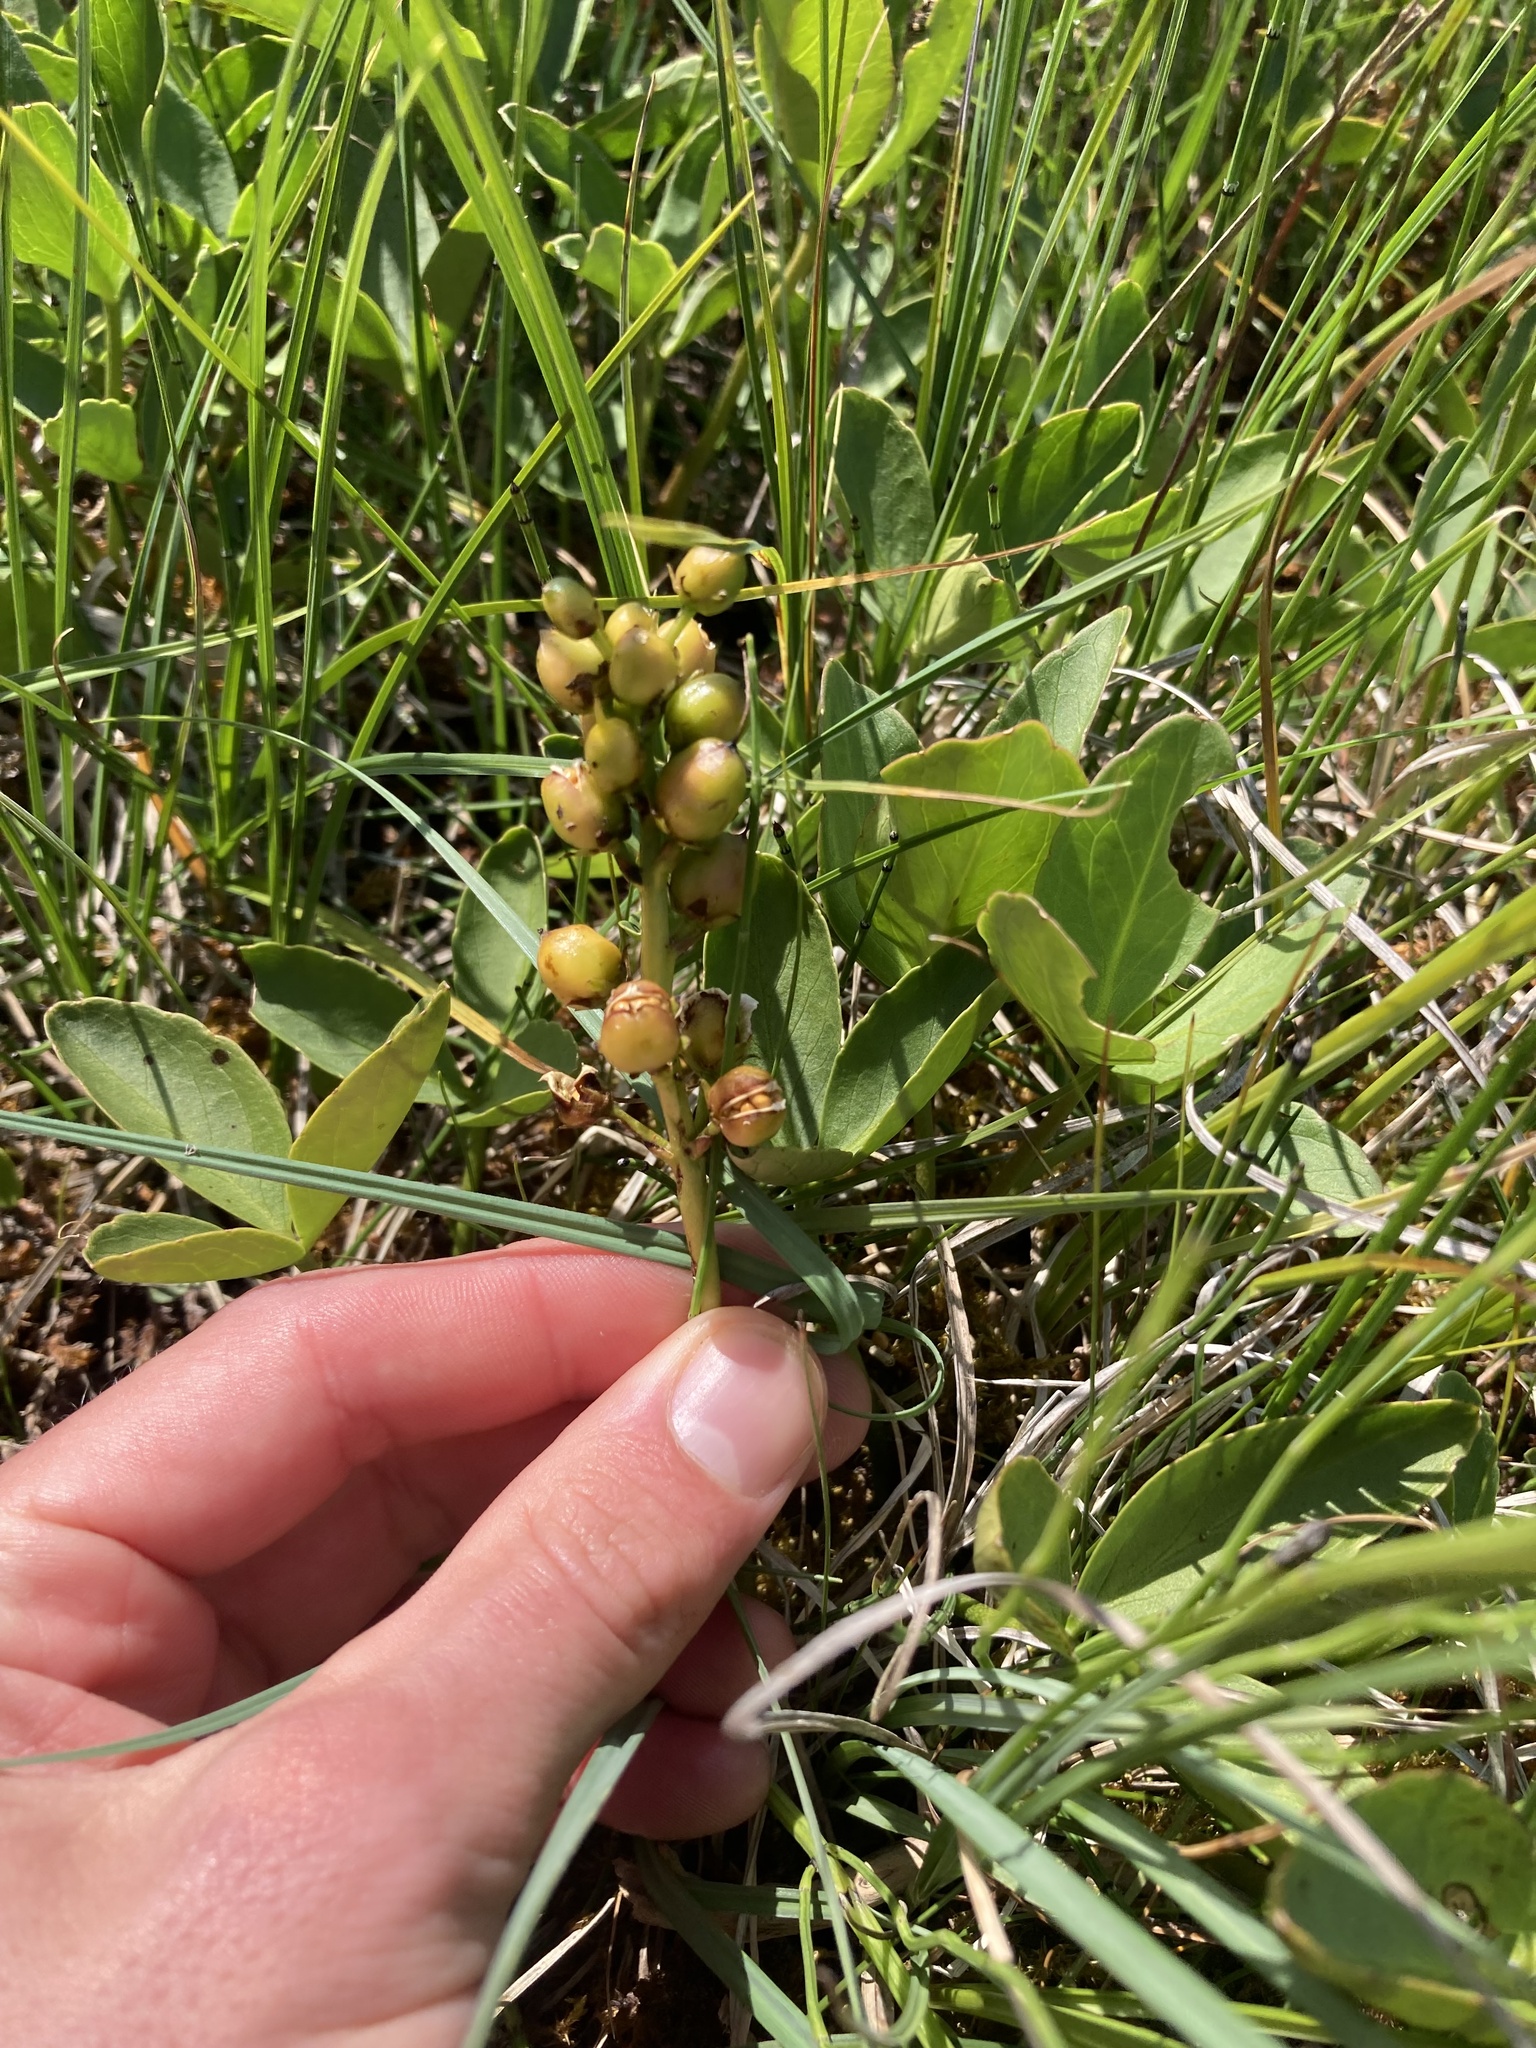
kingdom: Plantae
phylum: Tracheophyta
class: Magnoliopsida
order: Asterales
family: Menyanthaceae
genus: Menyanthes
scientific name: Menyanthes trifoliata
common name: Bogbean
